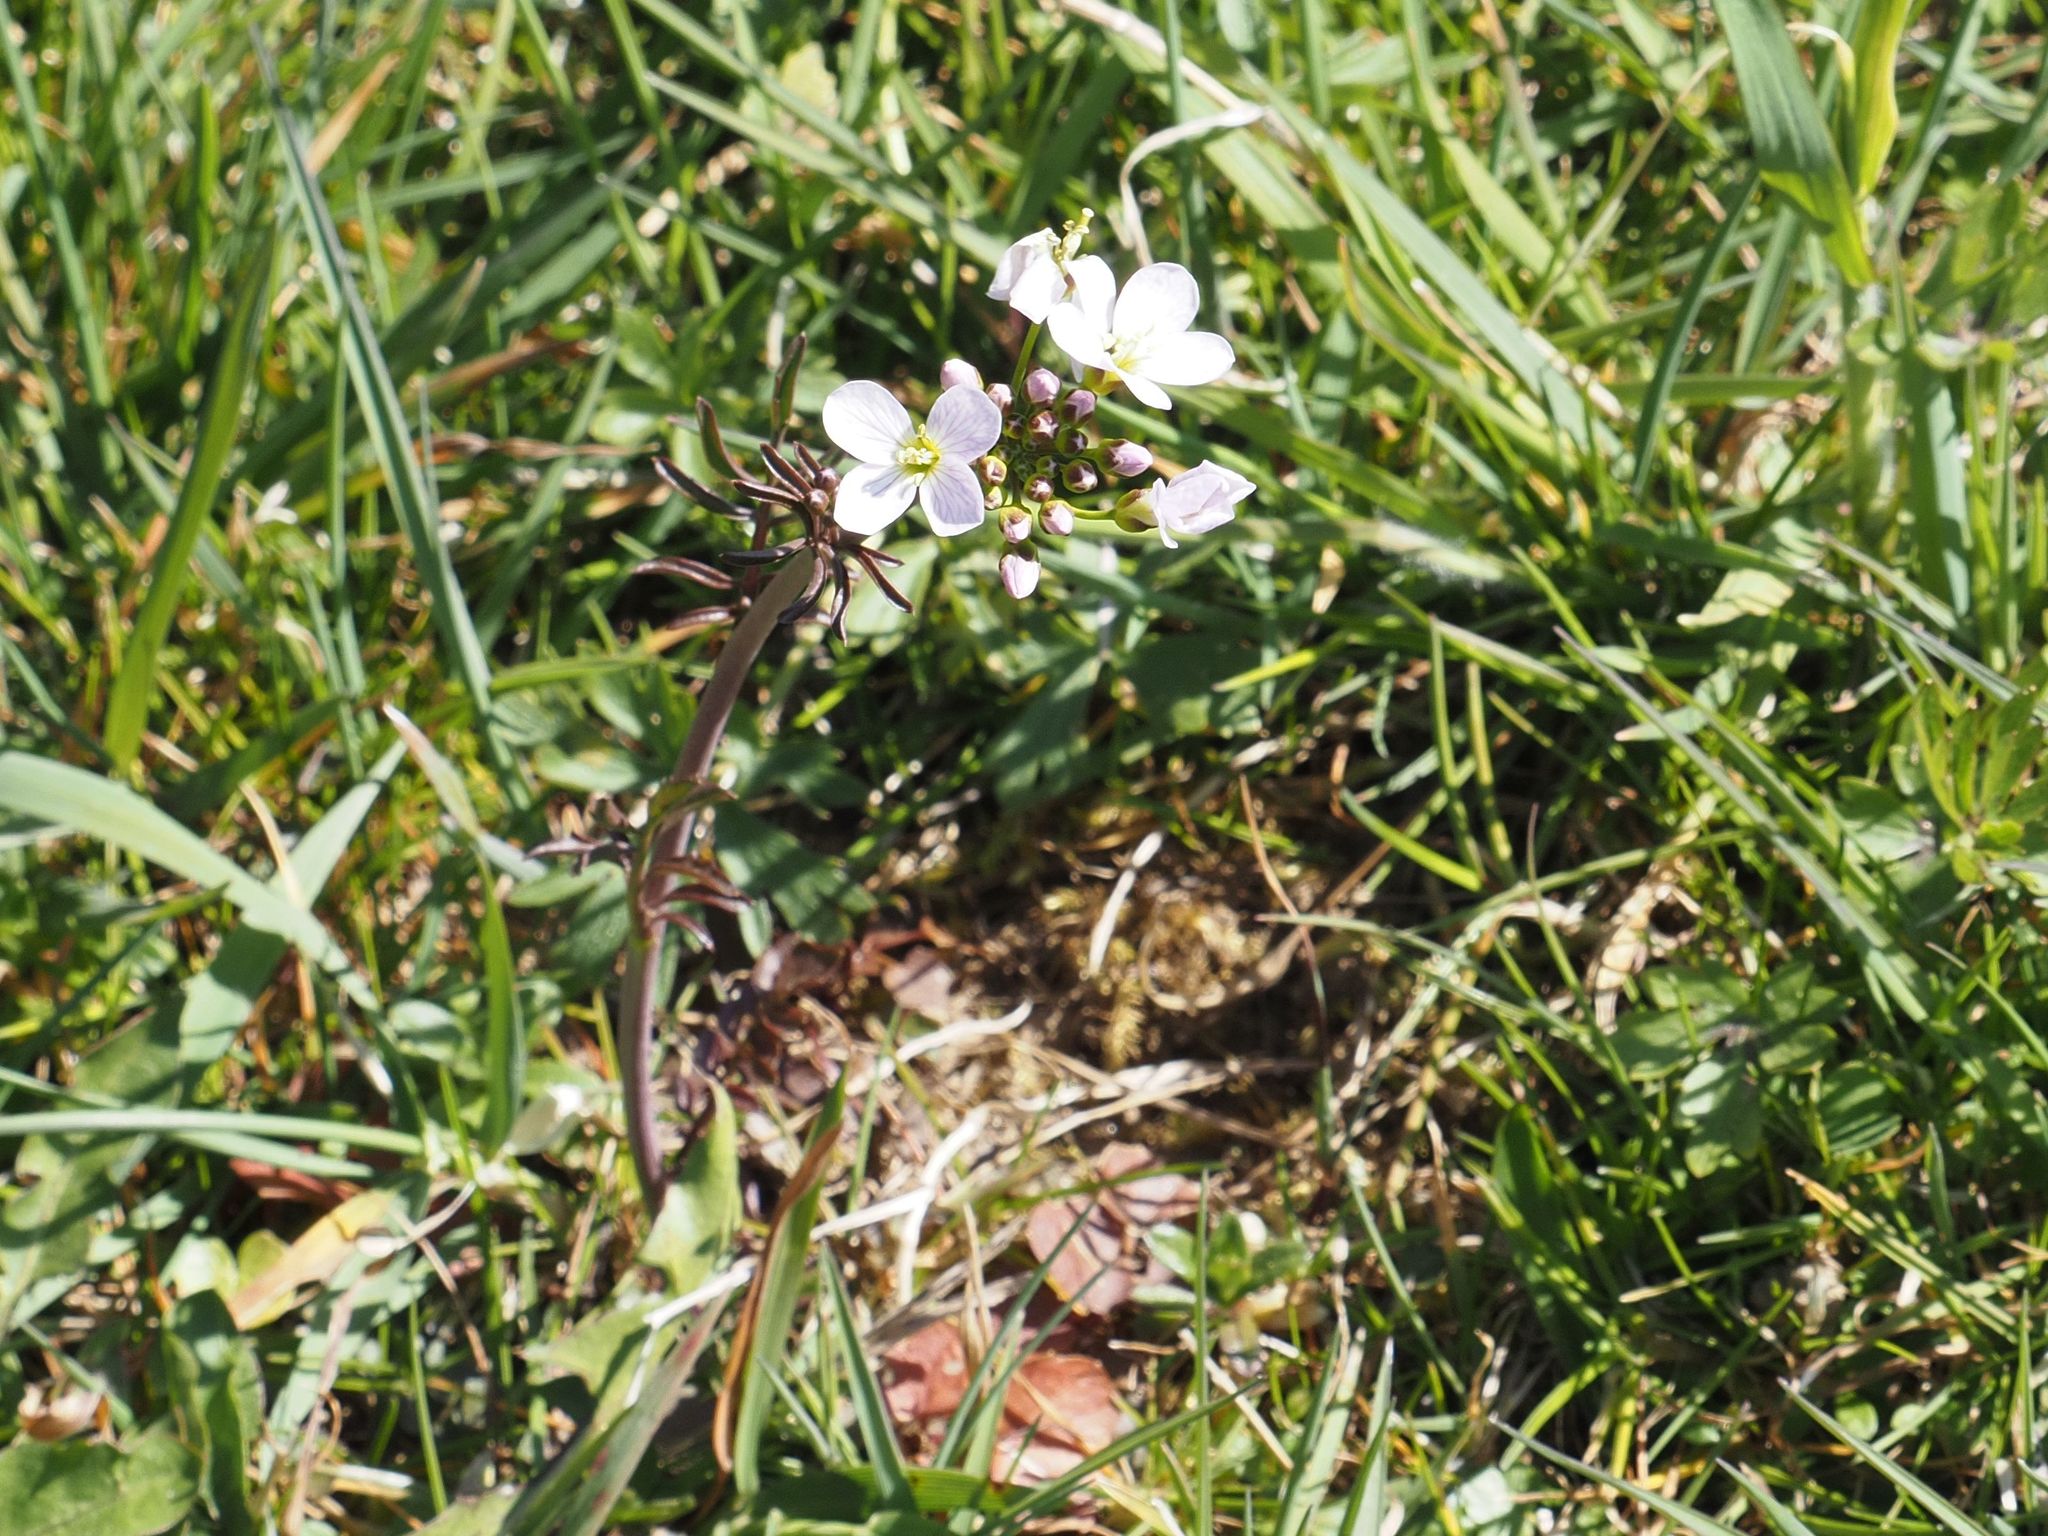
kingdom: Plantae
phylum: Tracheophyta
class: Magnoliopsida
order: Brassicales
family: Brassicaceae
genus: Cardamine
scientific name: Cardamine pratensis
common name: Cuckoo flower
